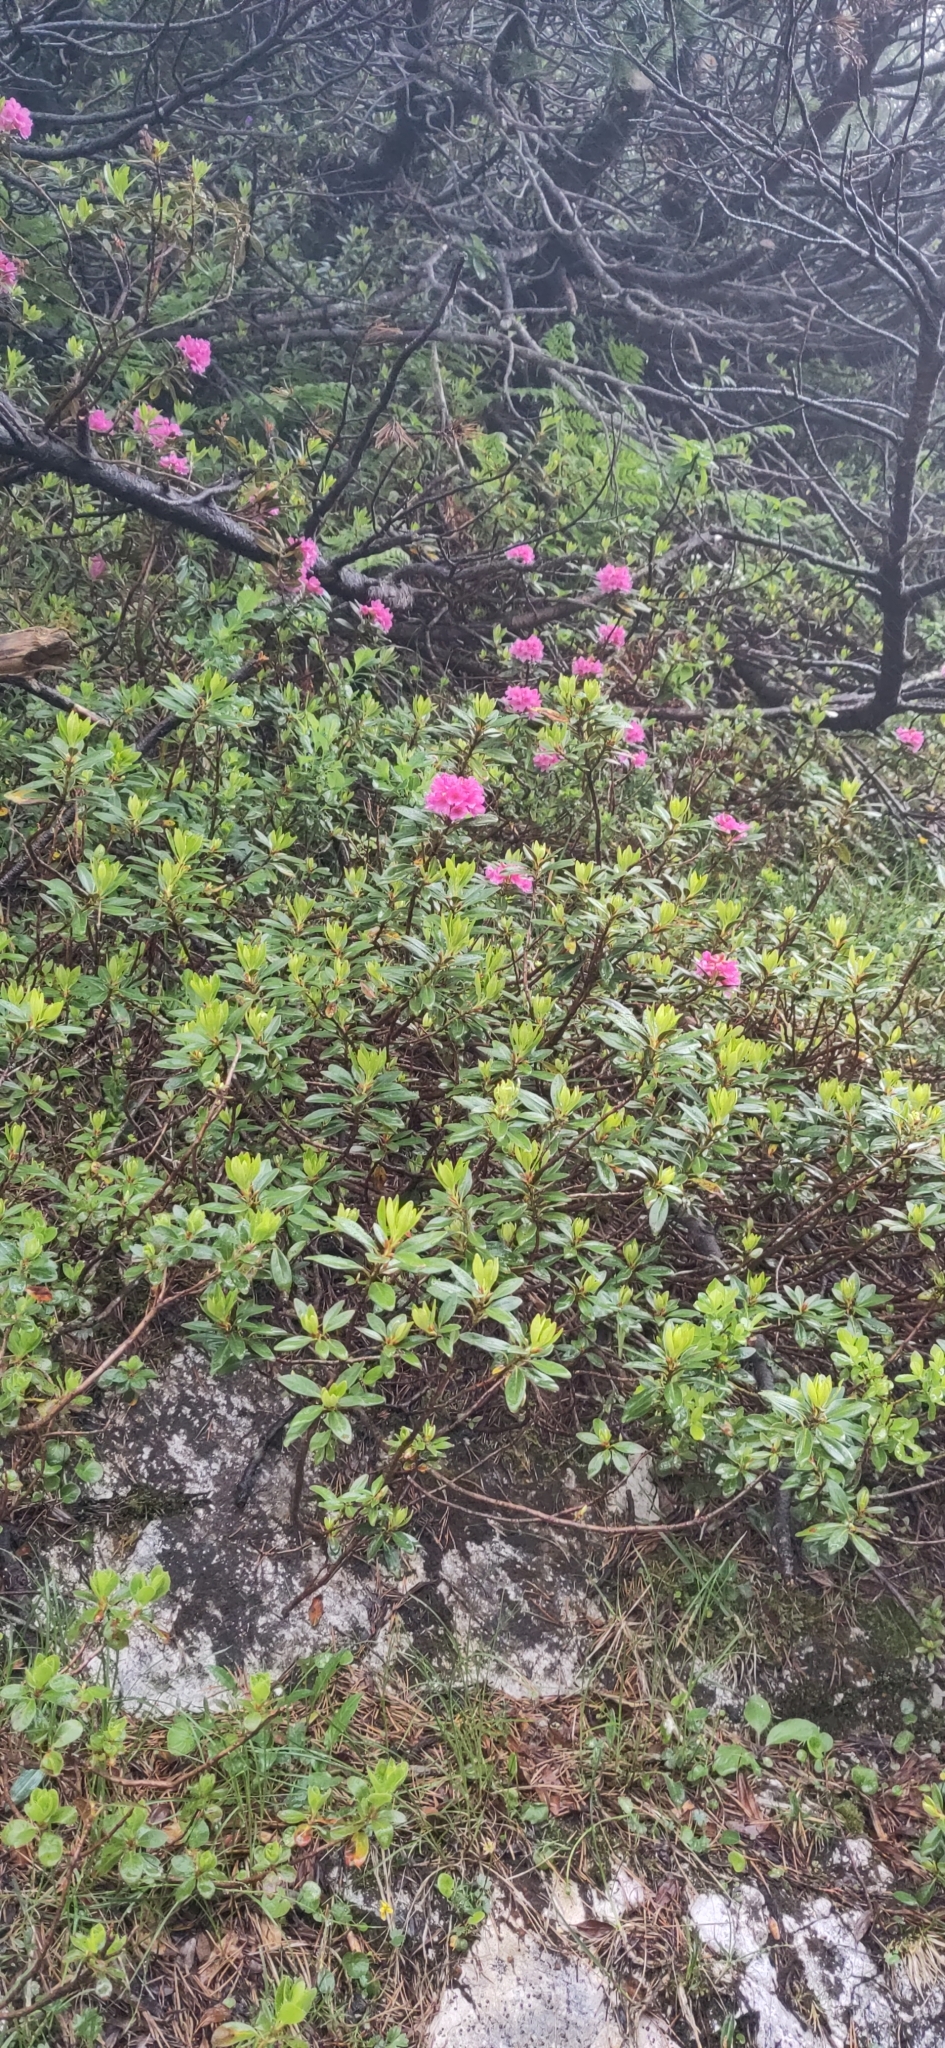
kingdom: Plantae
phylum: Tracheophyta
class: Magnoliopsida
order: Ericales
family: Ericaceae
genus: Rhododendron
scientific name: Rhododendron ferrugineum
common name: Alpenrose
